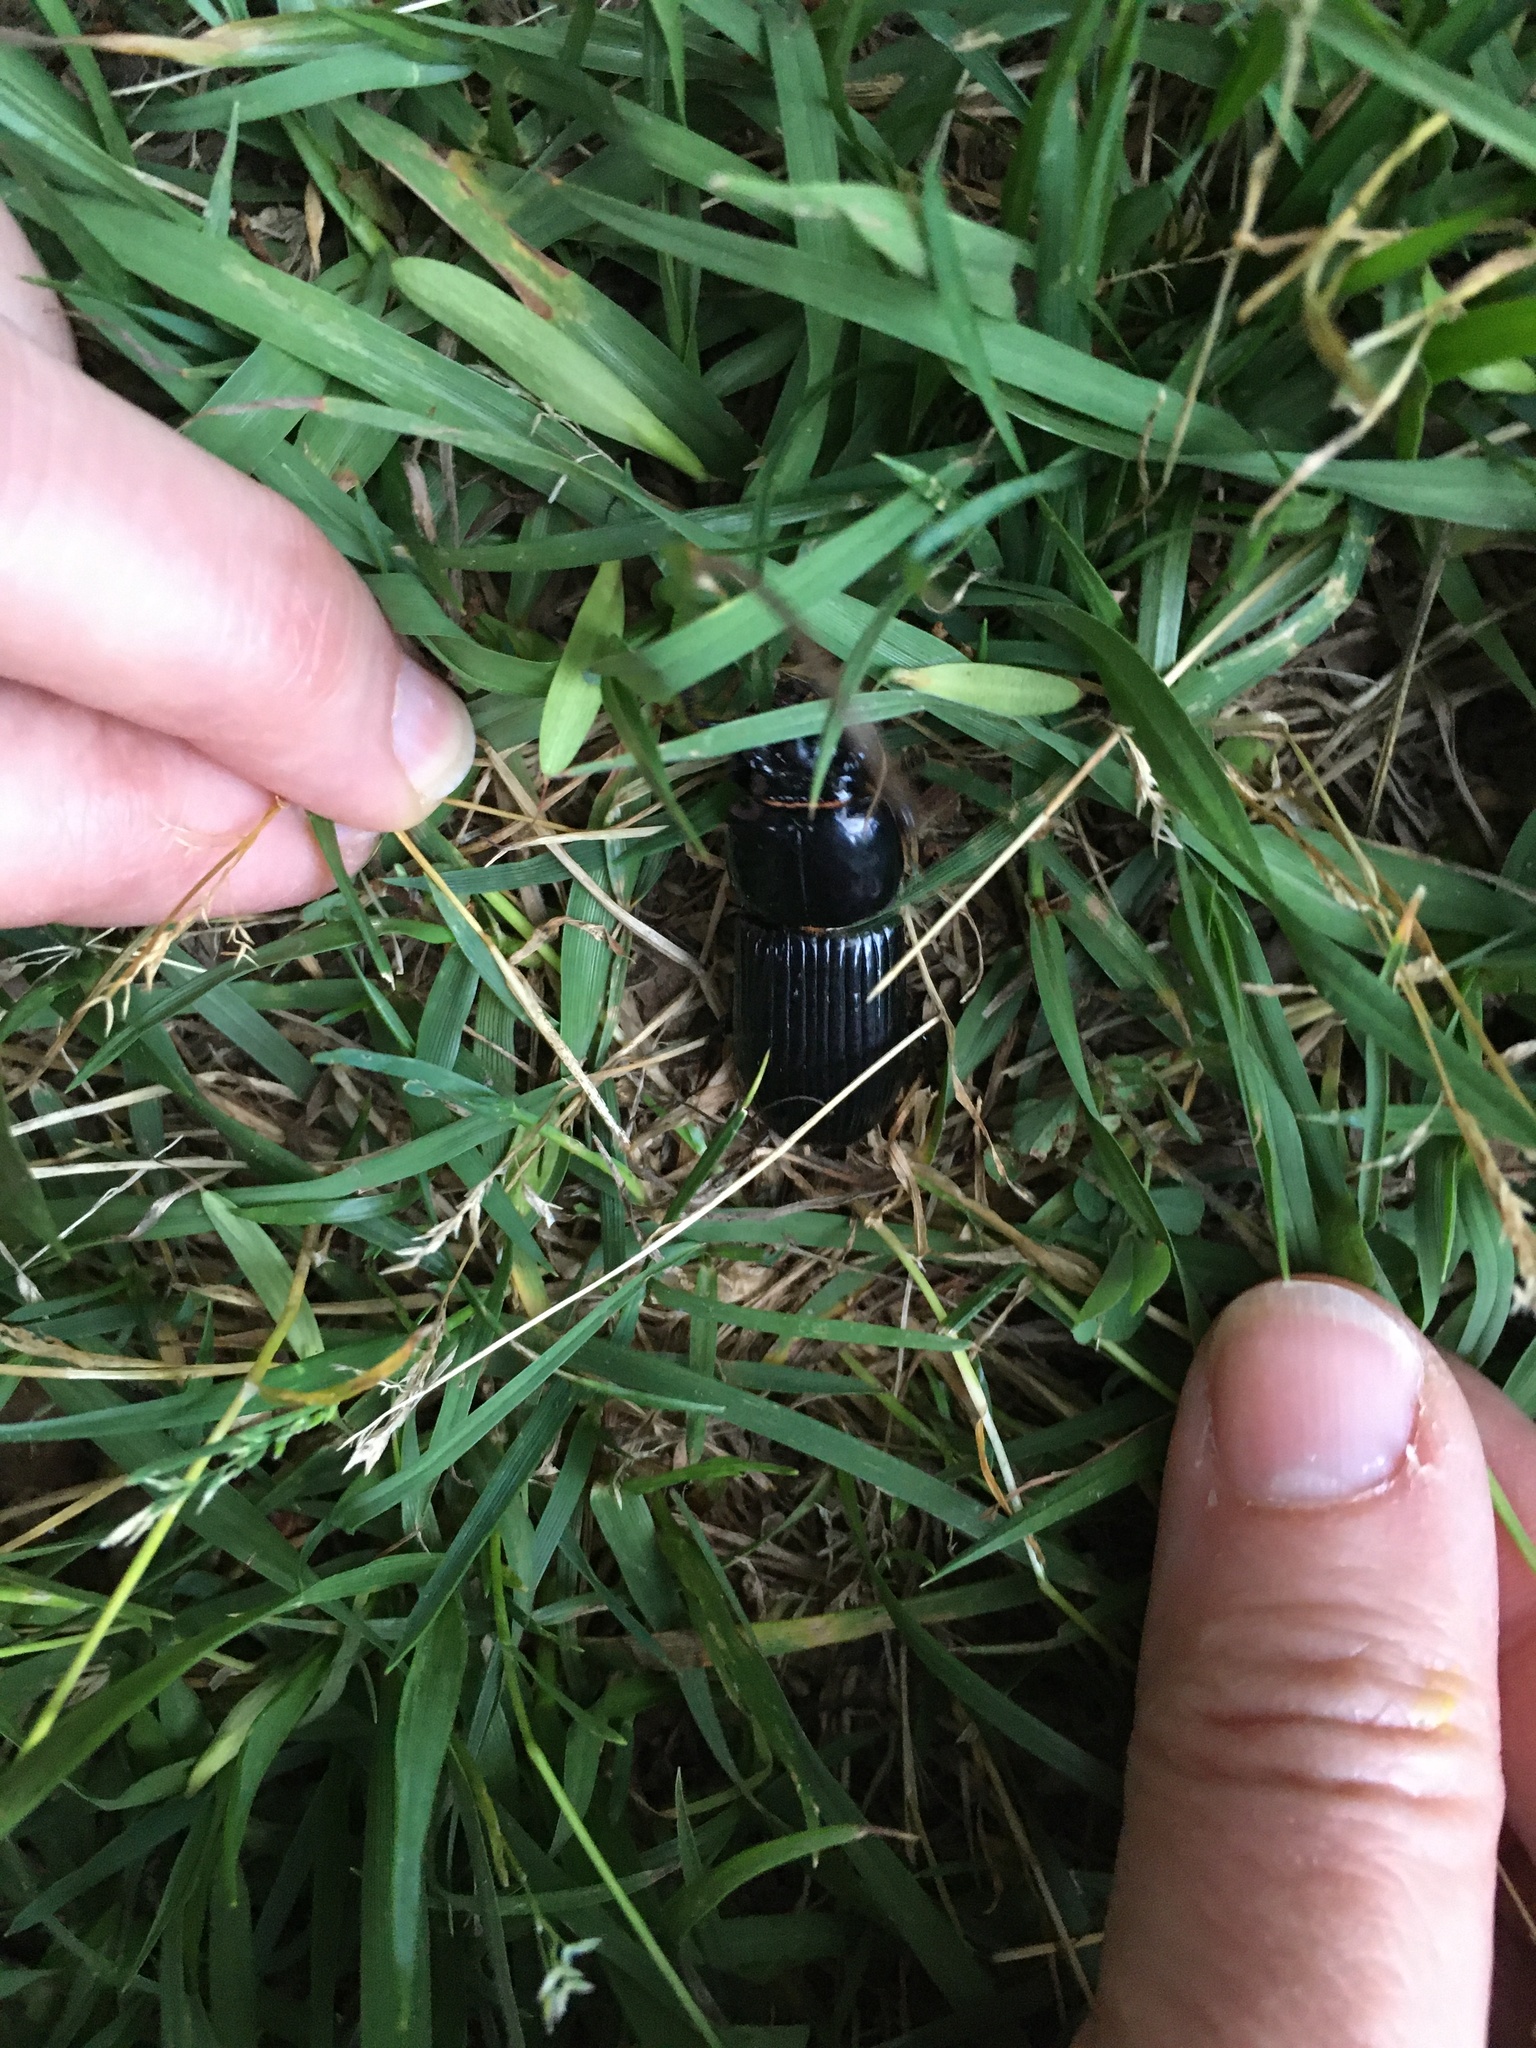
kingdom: Animalia
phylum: Arthropoda
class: Insecta
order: Coleoptera
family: Passalidae
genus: Odontotaenius
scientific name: Odontotaenius disjunctus
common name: Patent leather beetle
